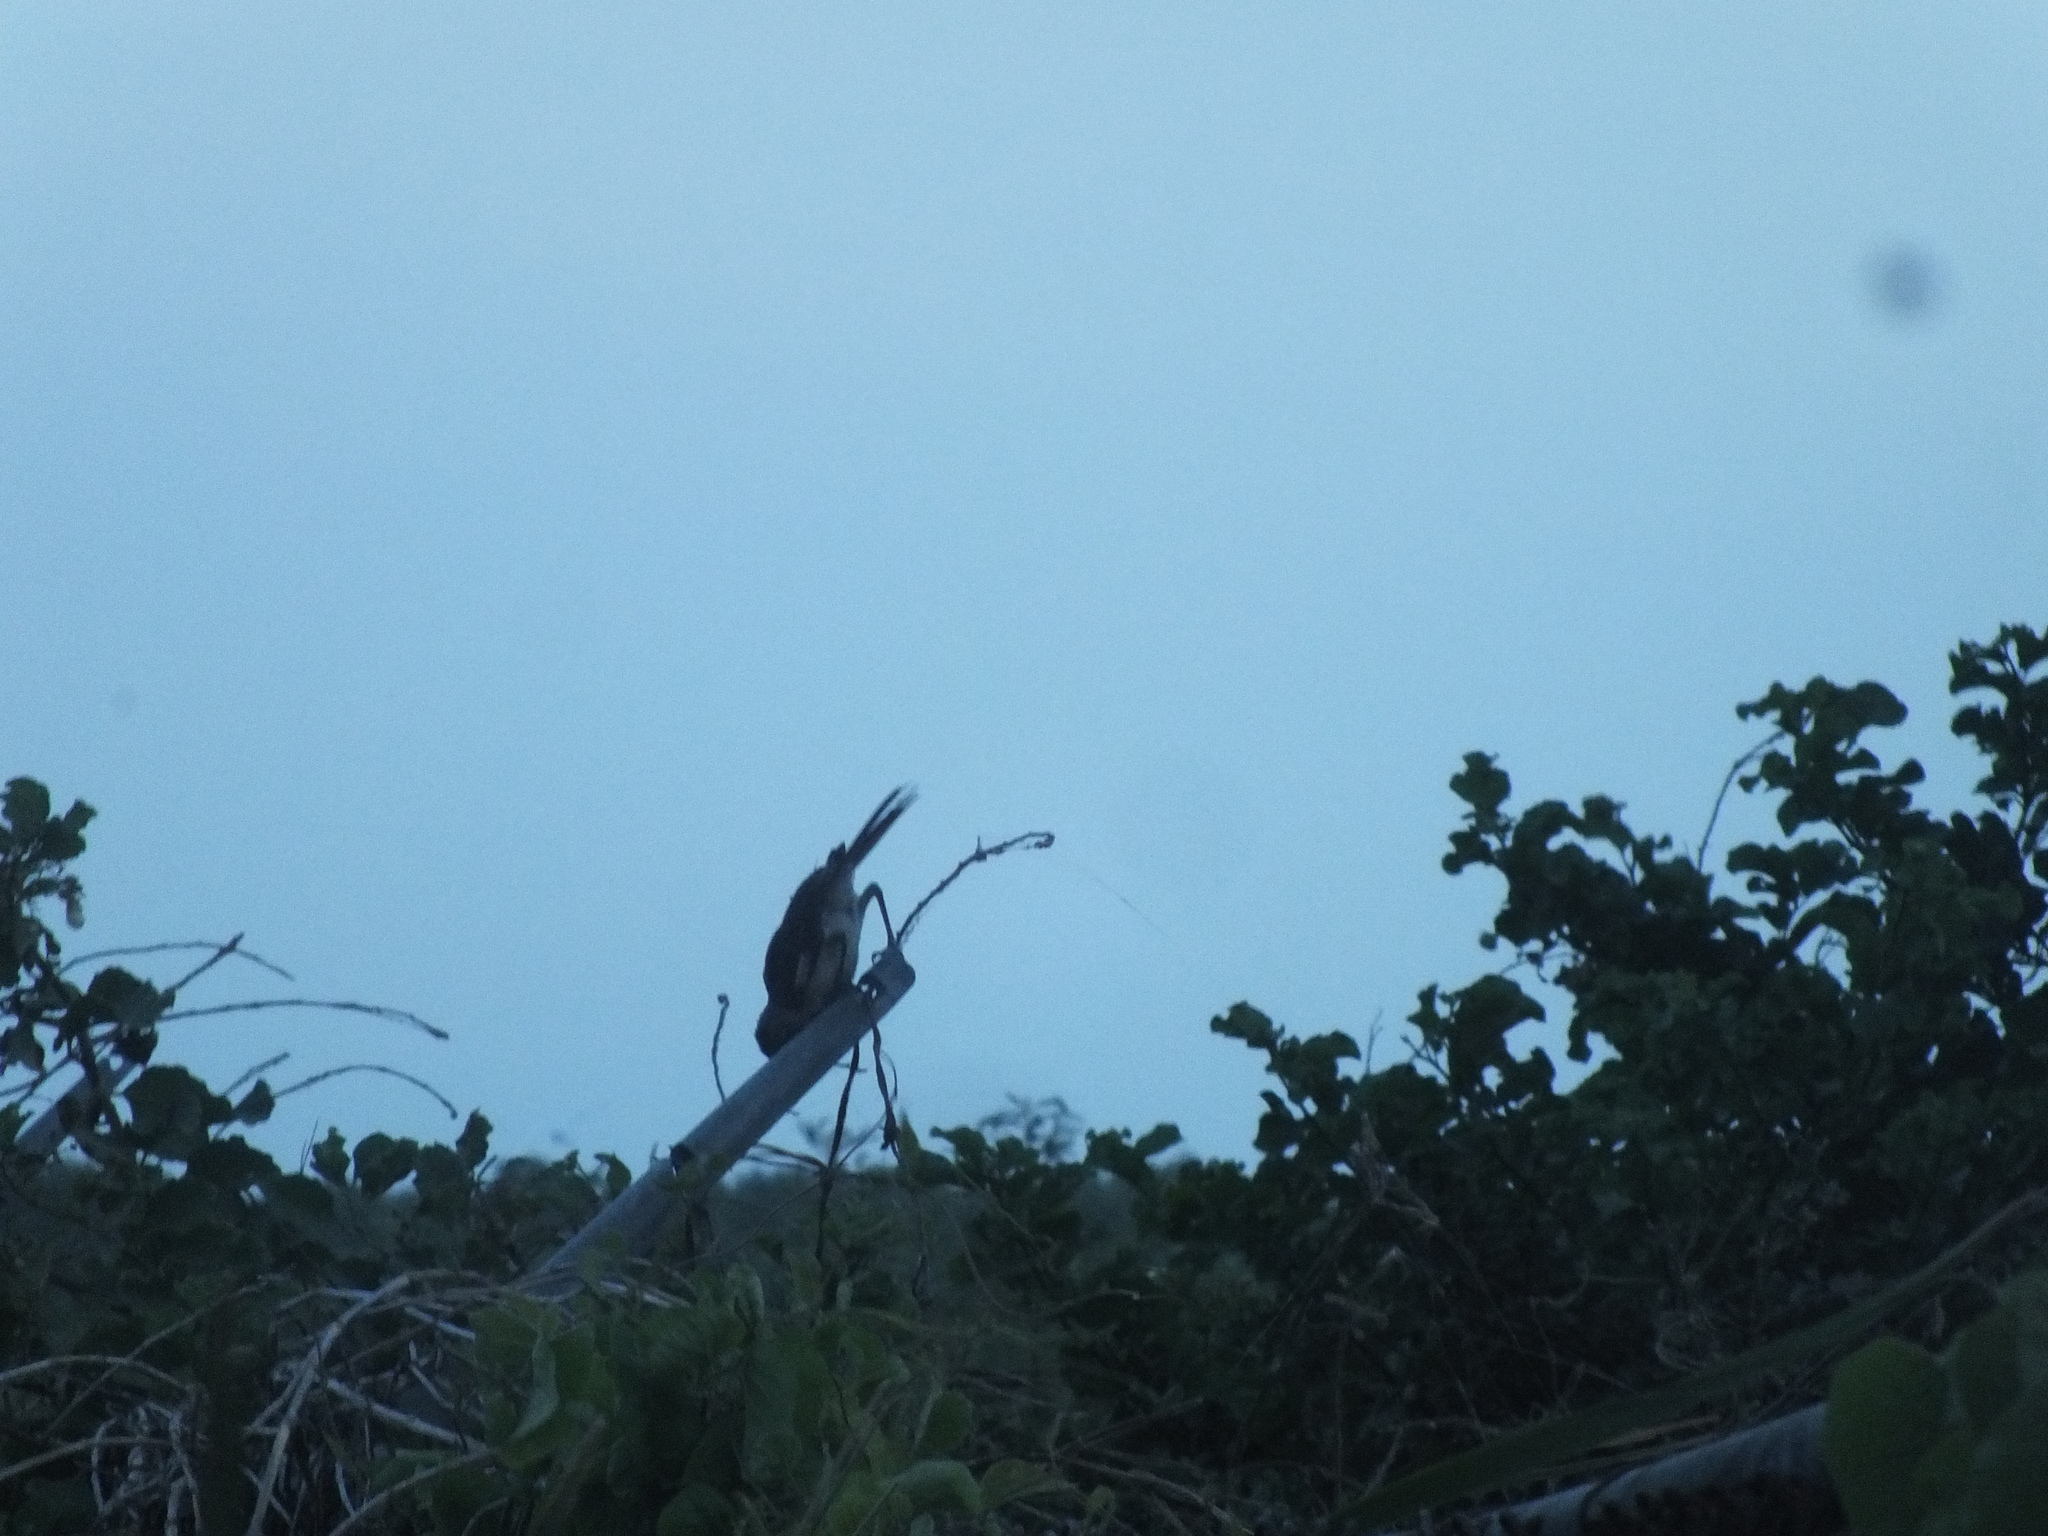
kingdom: Animalia
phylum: Chordata
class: Aves
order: Passeriformes
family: Mimidae
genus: Mimus
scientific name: Mimus polyglottos
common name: Northern mockingbird
